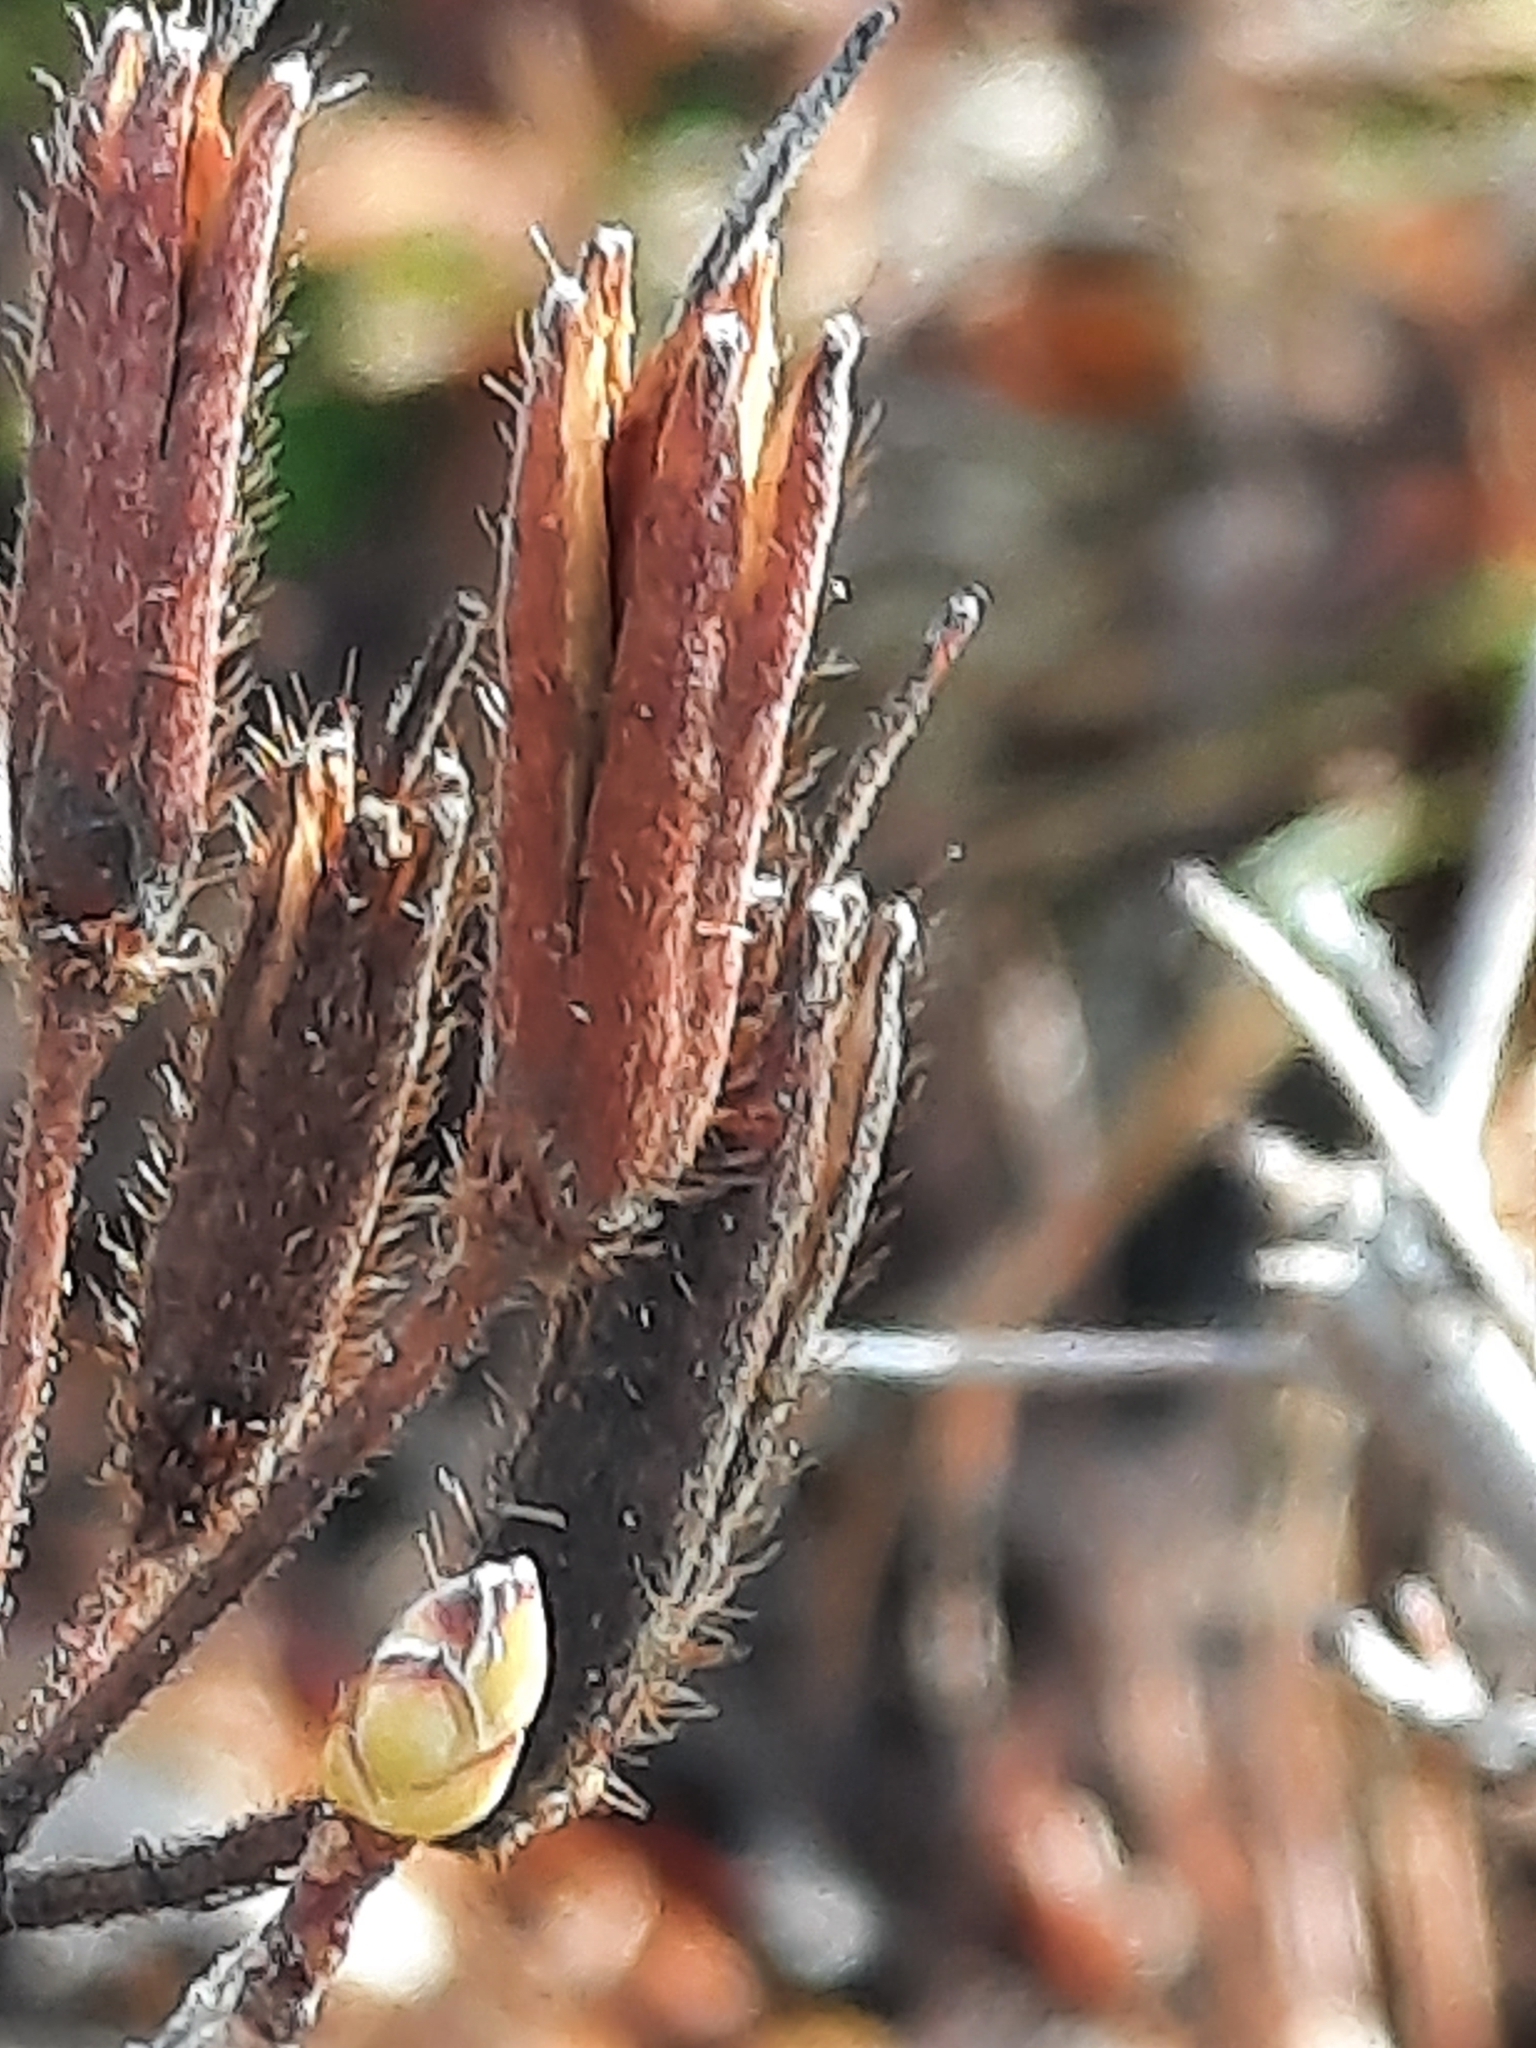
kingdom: Plantae
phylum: Tracheophyta
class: Magnoliopsida
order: Ericales
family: Ericaceae
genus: Rhododendron
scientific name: Rhododendron viscosum
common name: Clammy azalea
